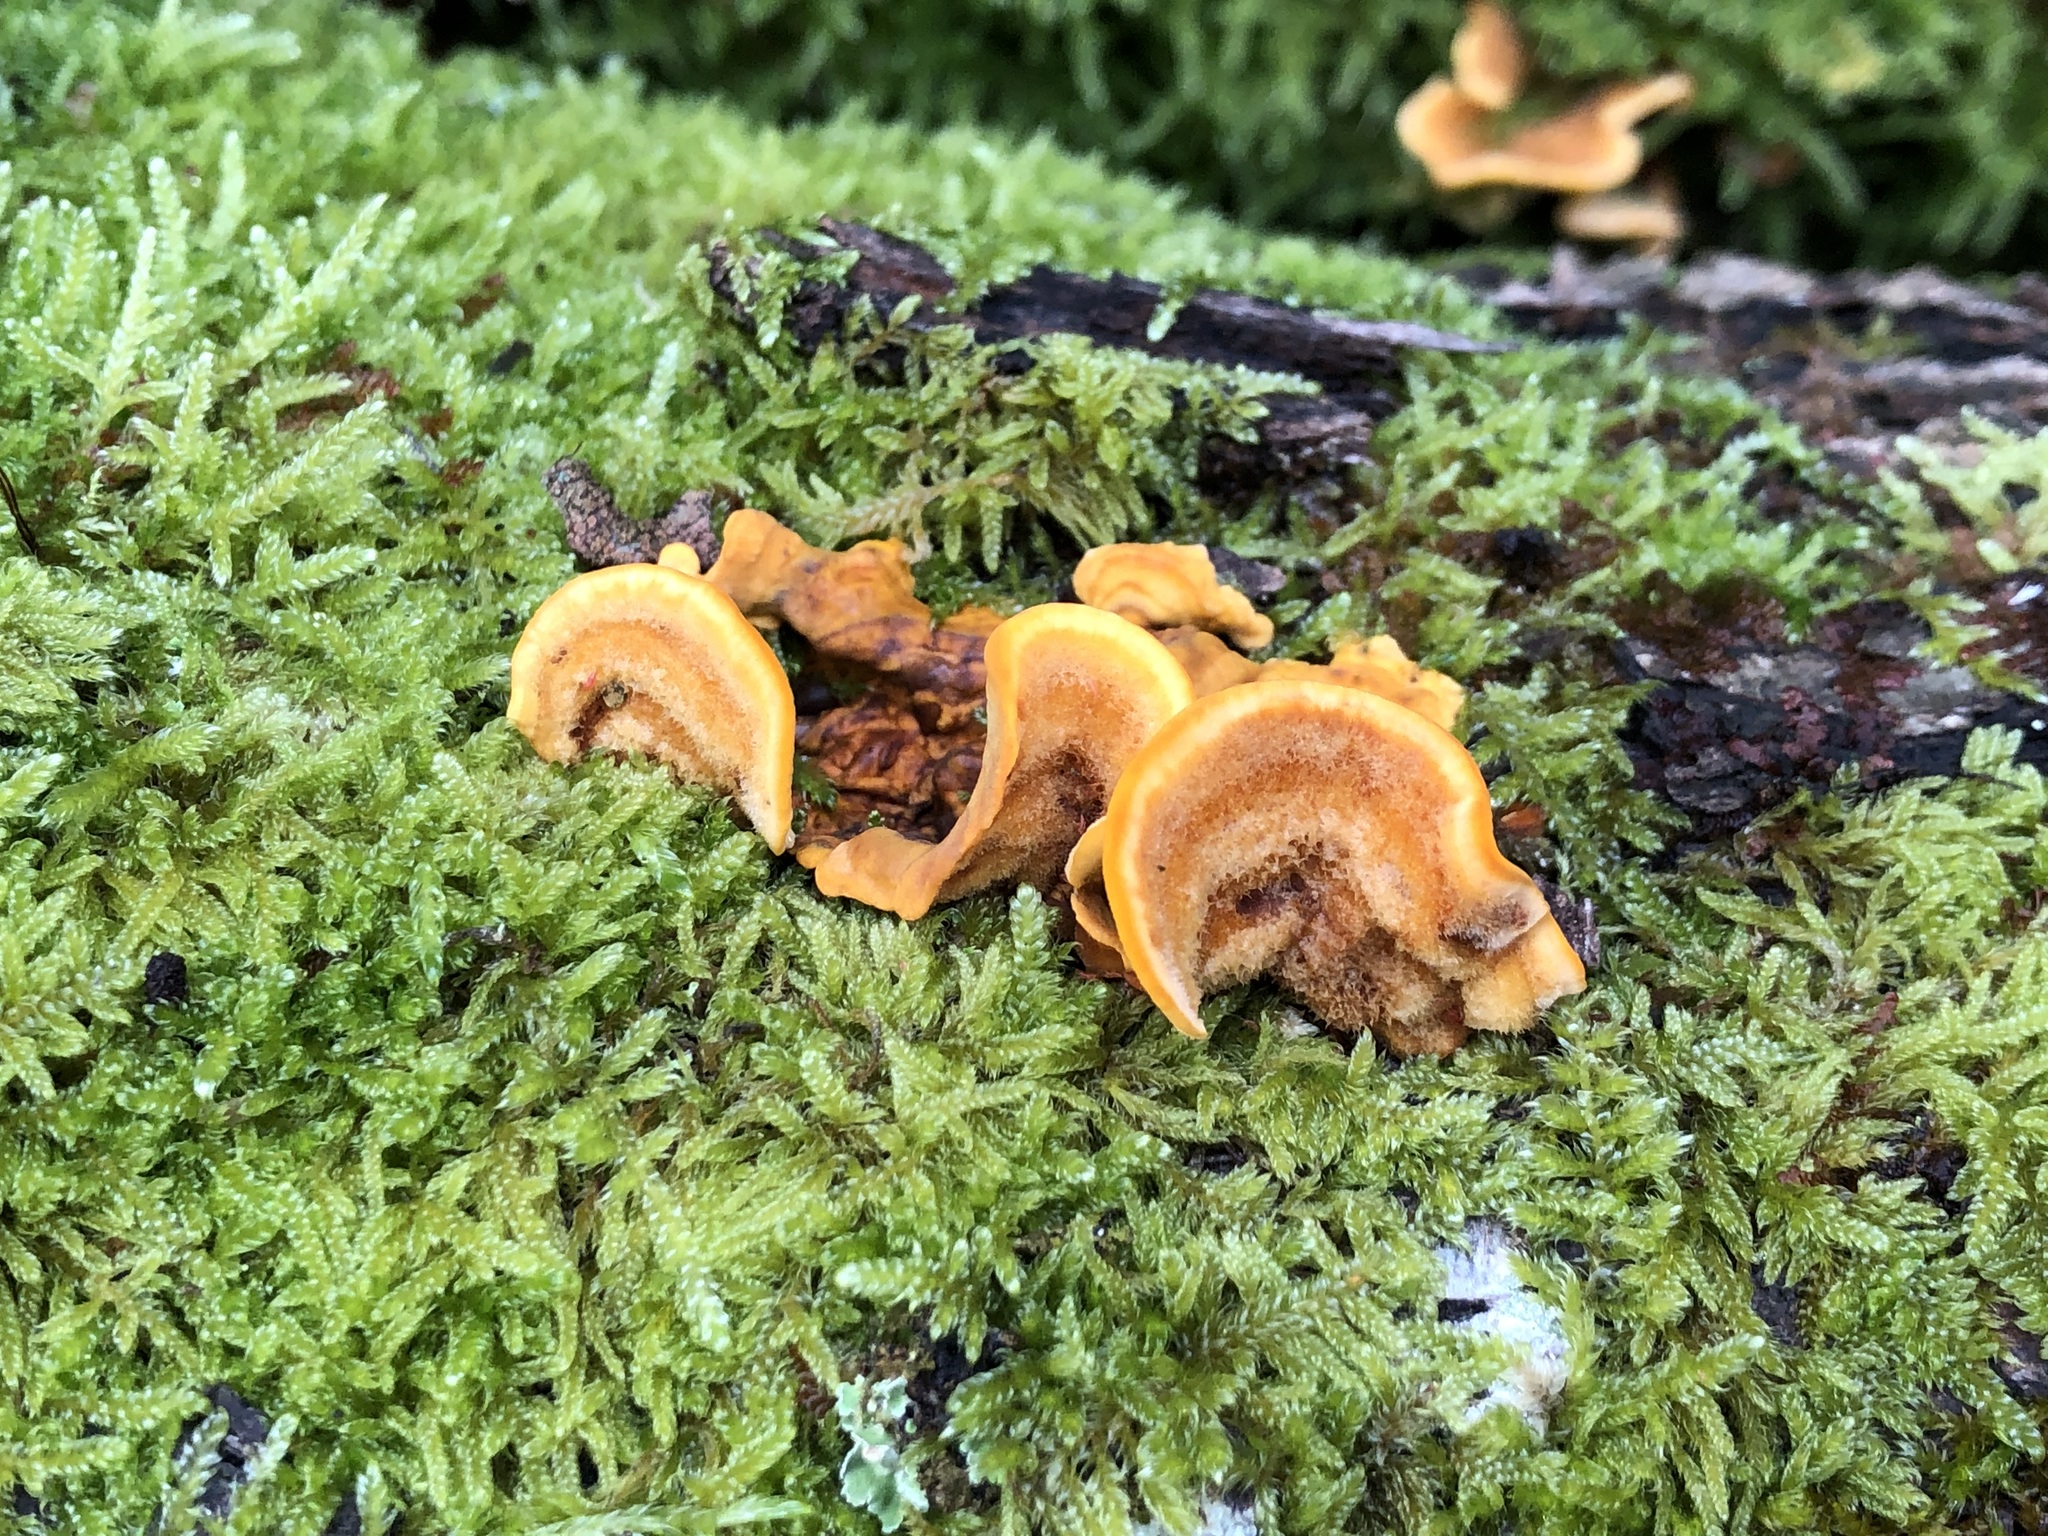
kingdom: Fungi
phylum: Basidiomycota
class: Agaricomycetes
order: Russulales
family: Stereaceae
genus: Stereum
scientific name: Stereum hirsutum
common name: Hairy curtain crust
